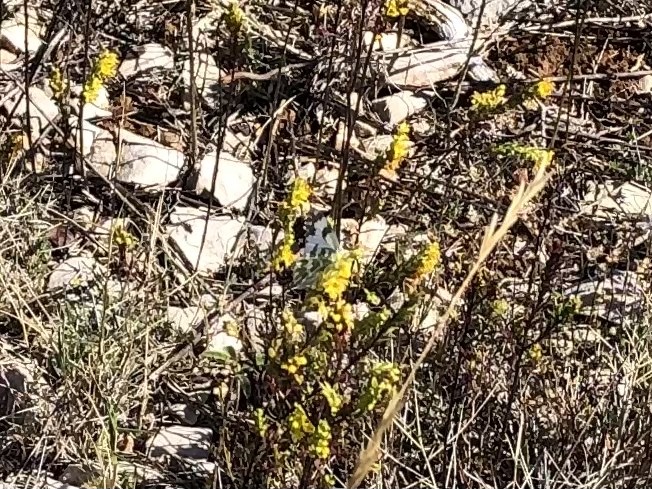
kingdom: Animalia
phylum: Arthropoda
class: Insecta
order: Lepidoptera
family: Pieridae
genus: Pontia
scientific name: Pontia edusa
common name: Eastern bath white
